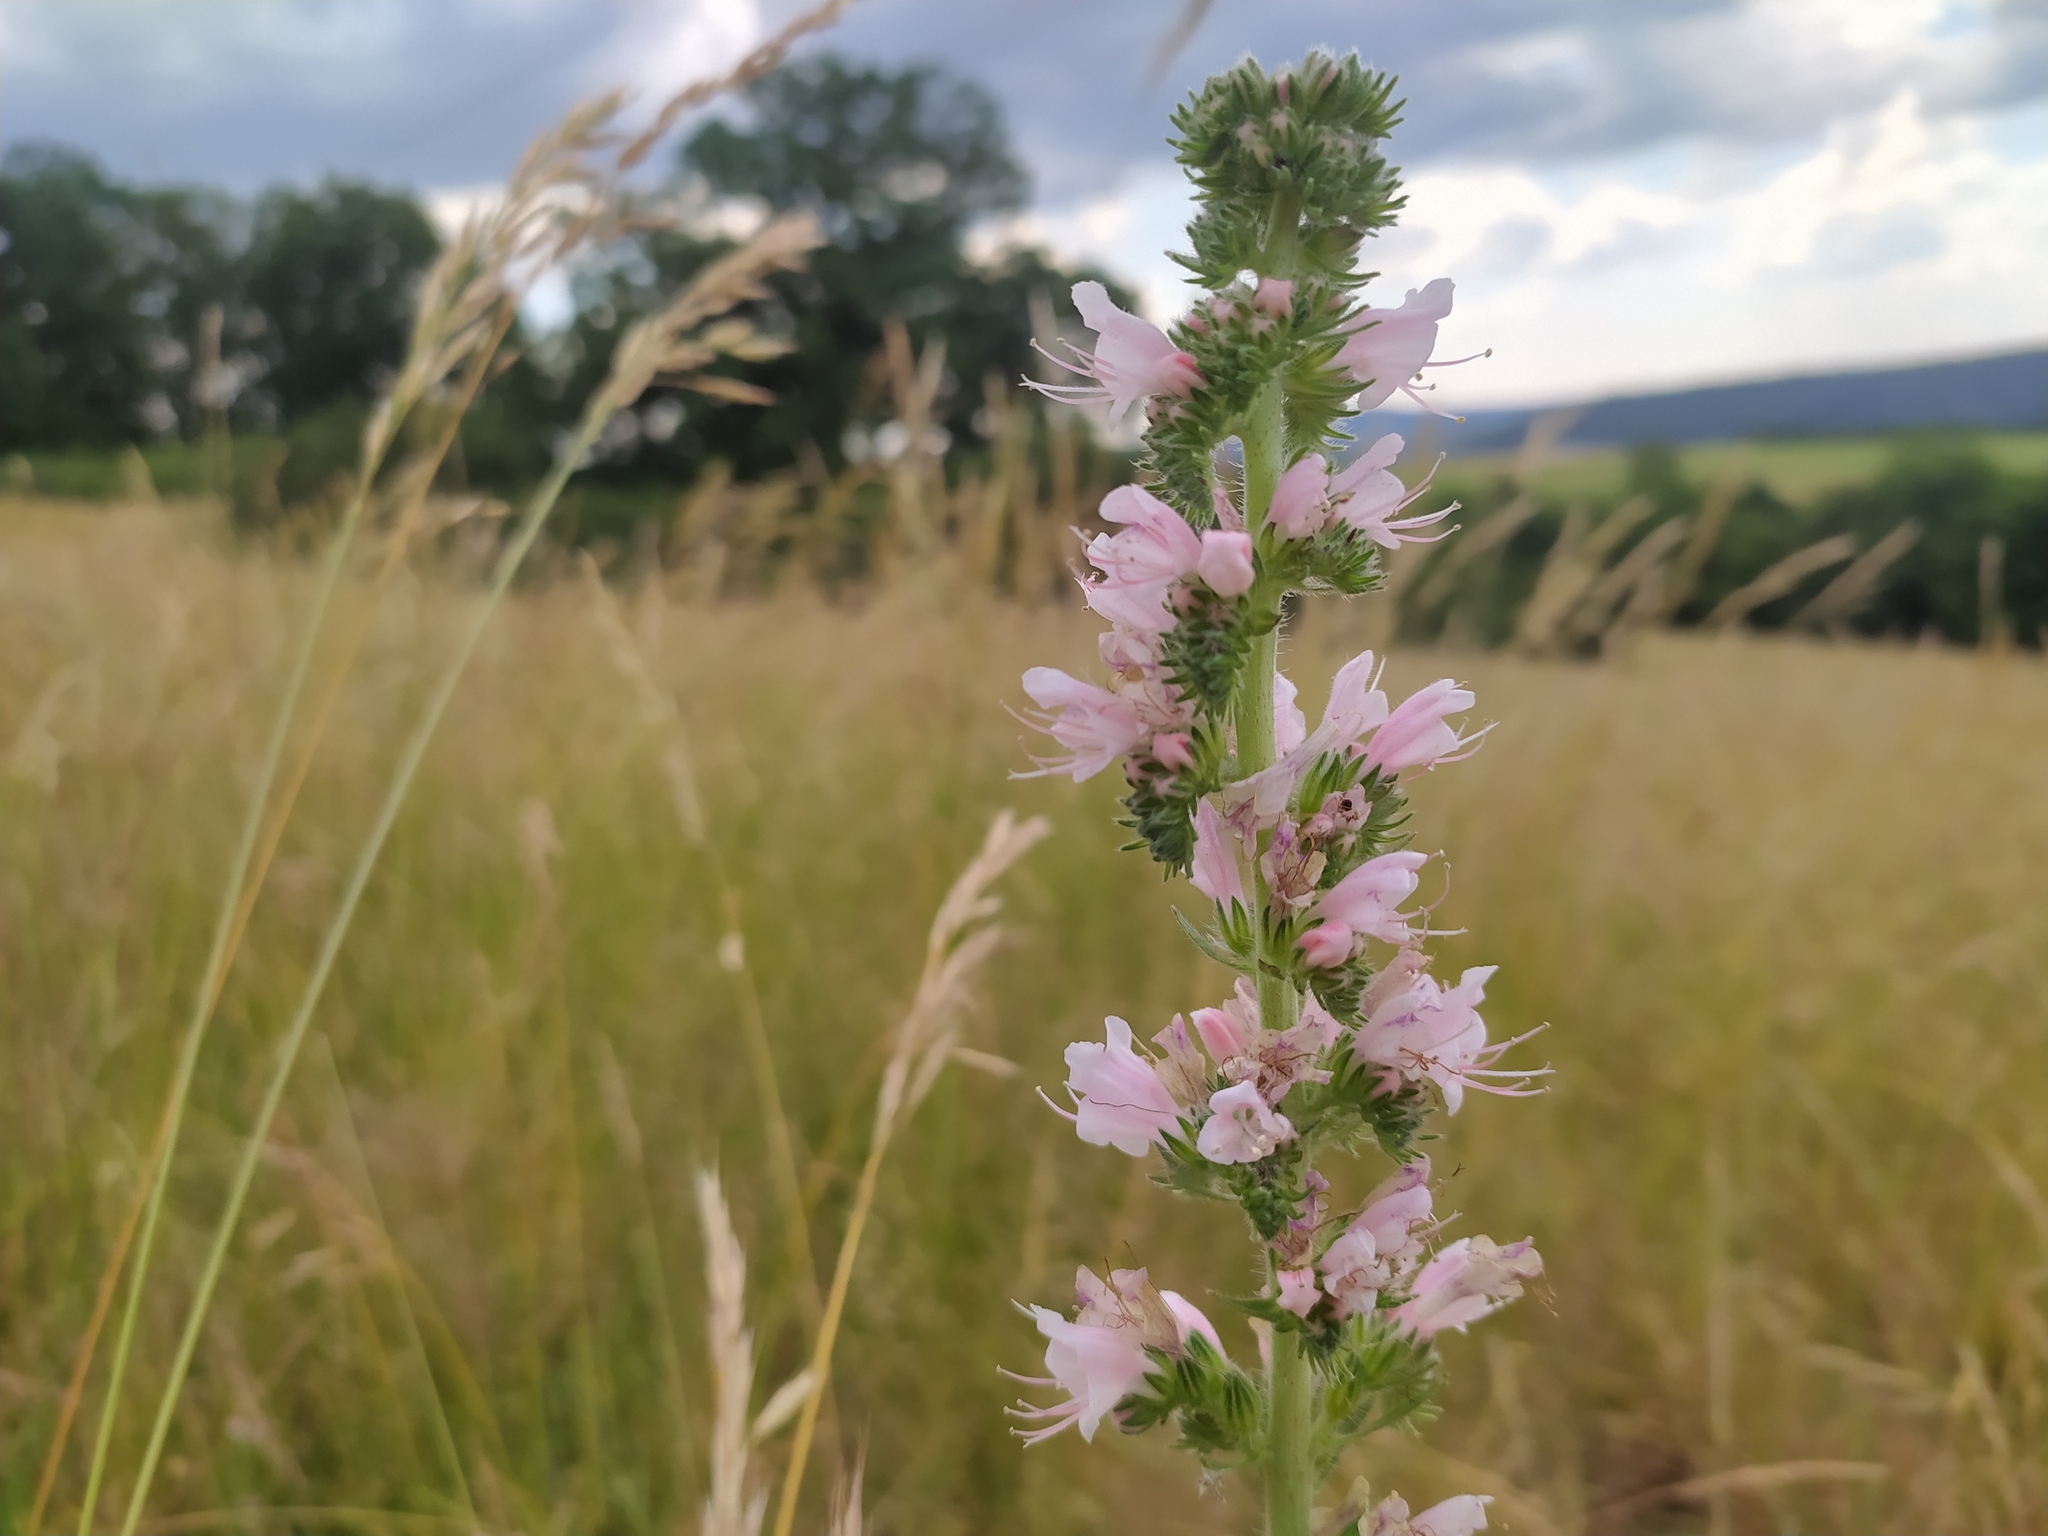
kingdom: Plantae
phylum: Tracheophyta
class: Magnoliopsida
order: Boraginales
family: Boraginaceae
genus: Echium
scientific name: Echium vulgare
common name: Common viper's bugloss
